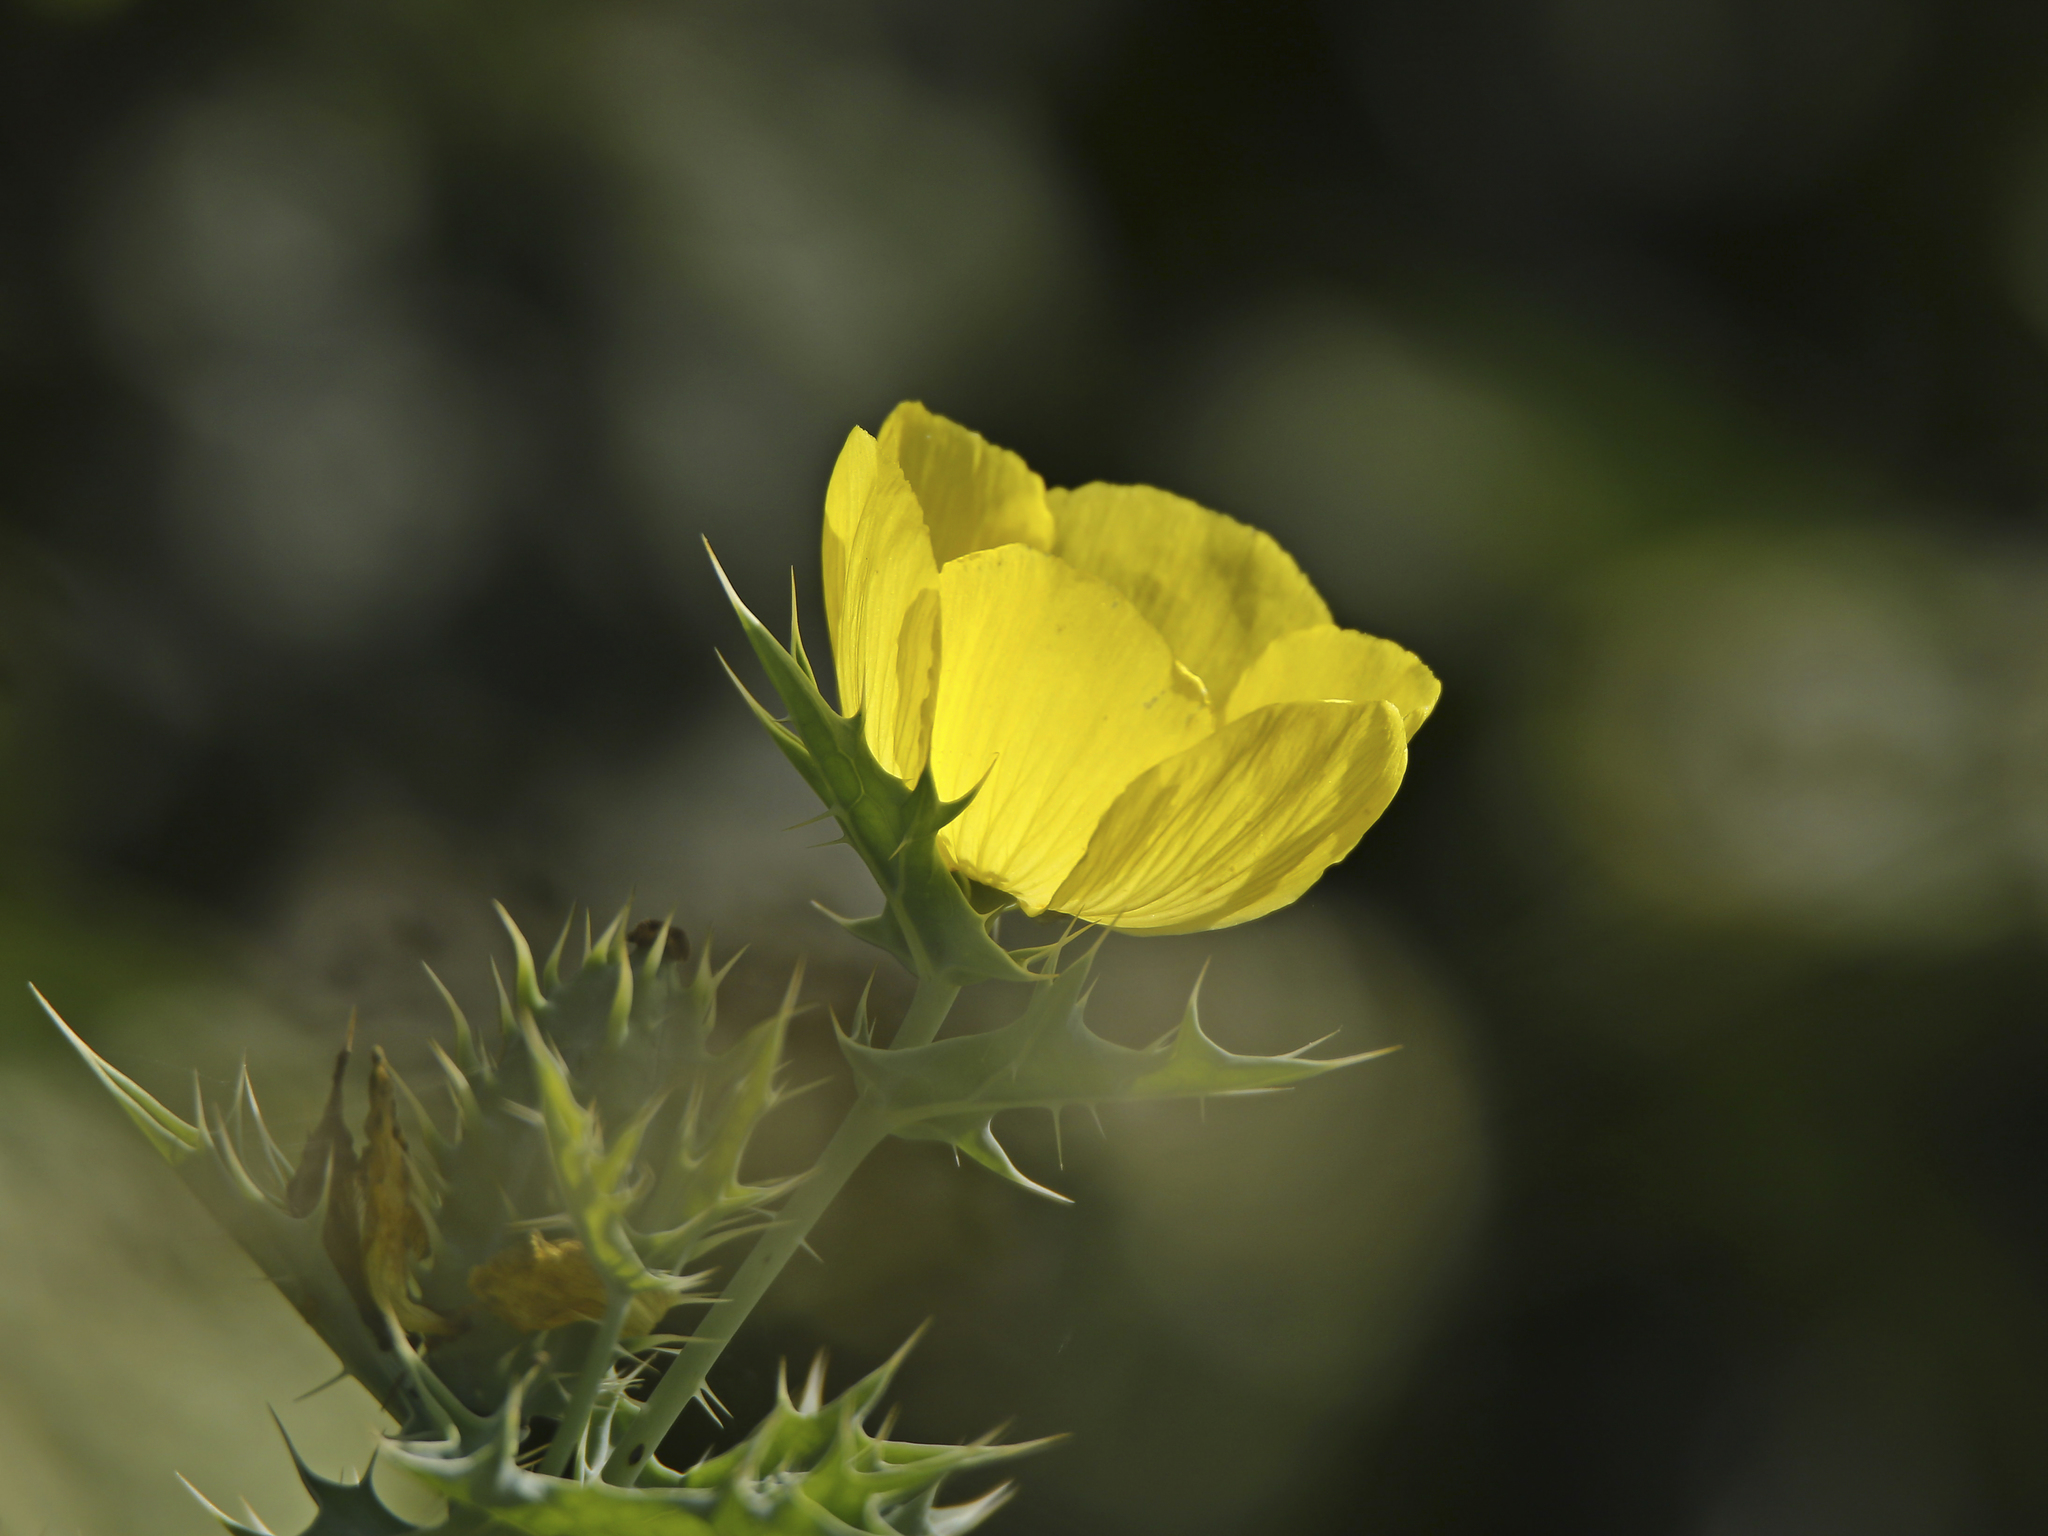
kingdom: Plantae
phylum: Tracheophyta
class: Magnoliopsida
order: Ranunculales
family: Papaveraceae
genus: Argemone
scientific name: Argemone mexicana
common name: Mexican poppy
